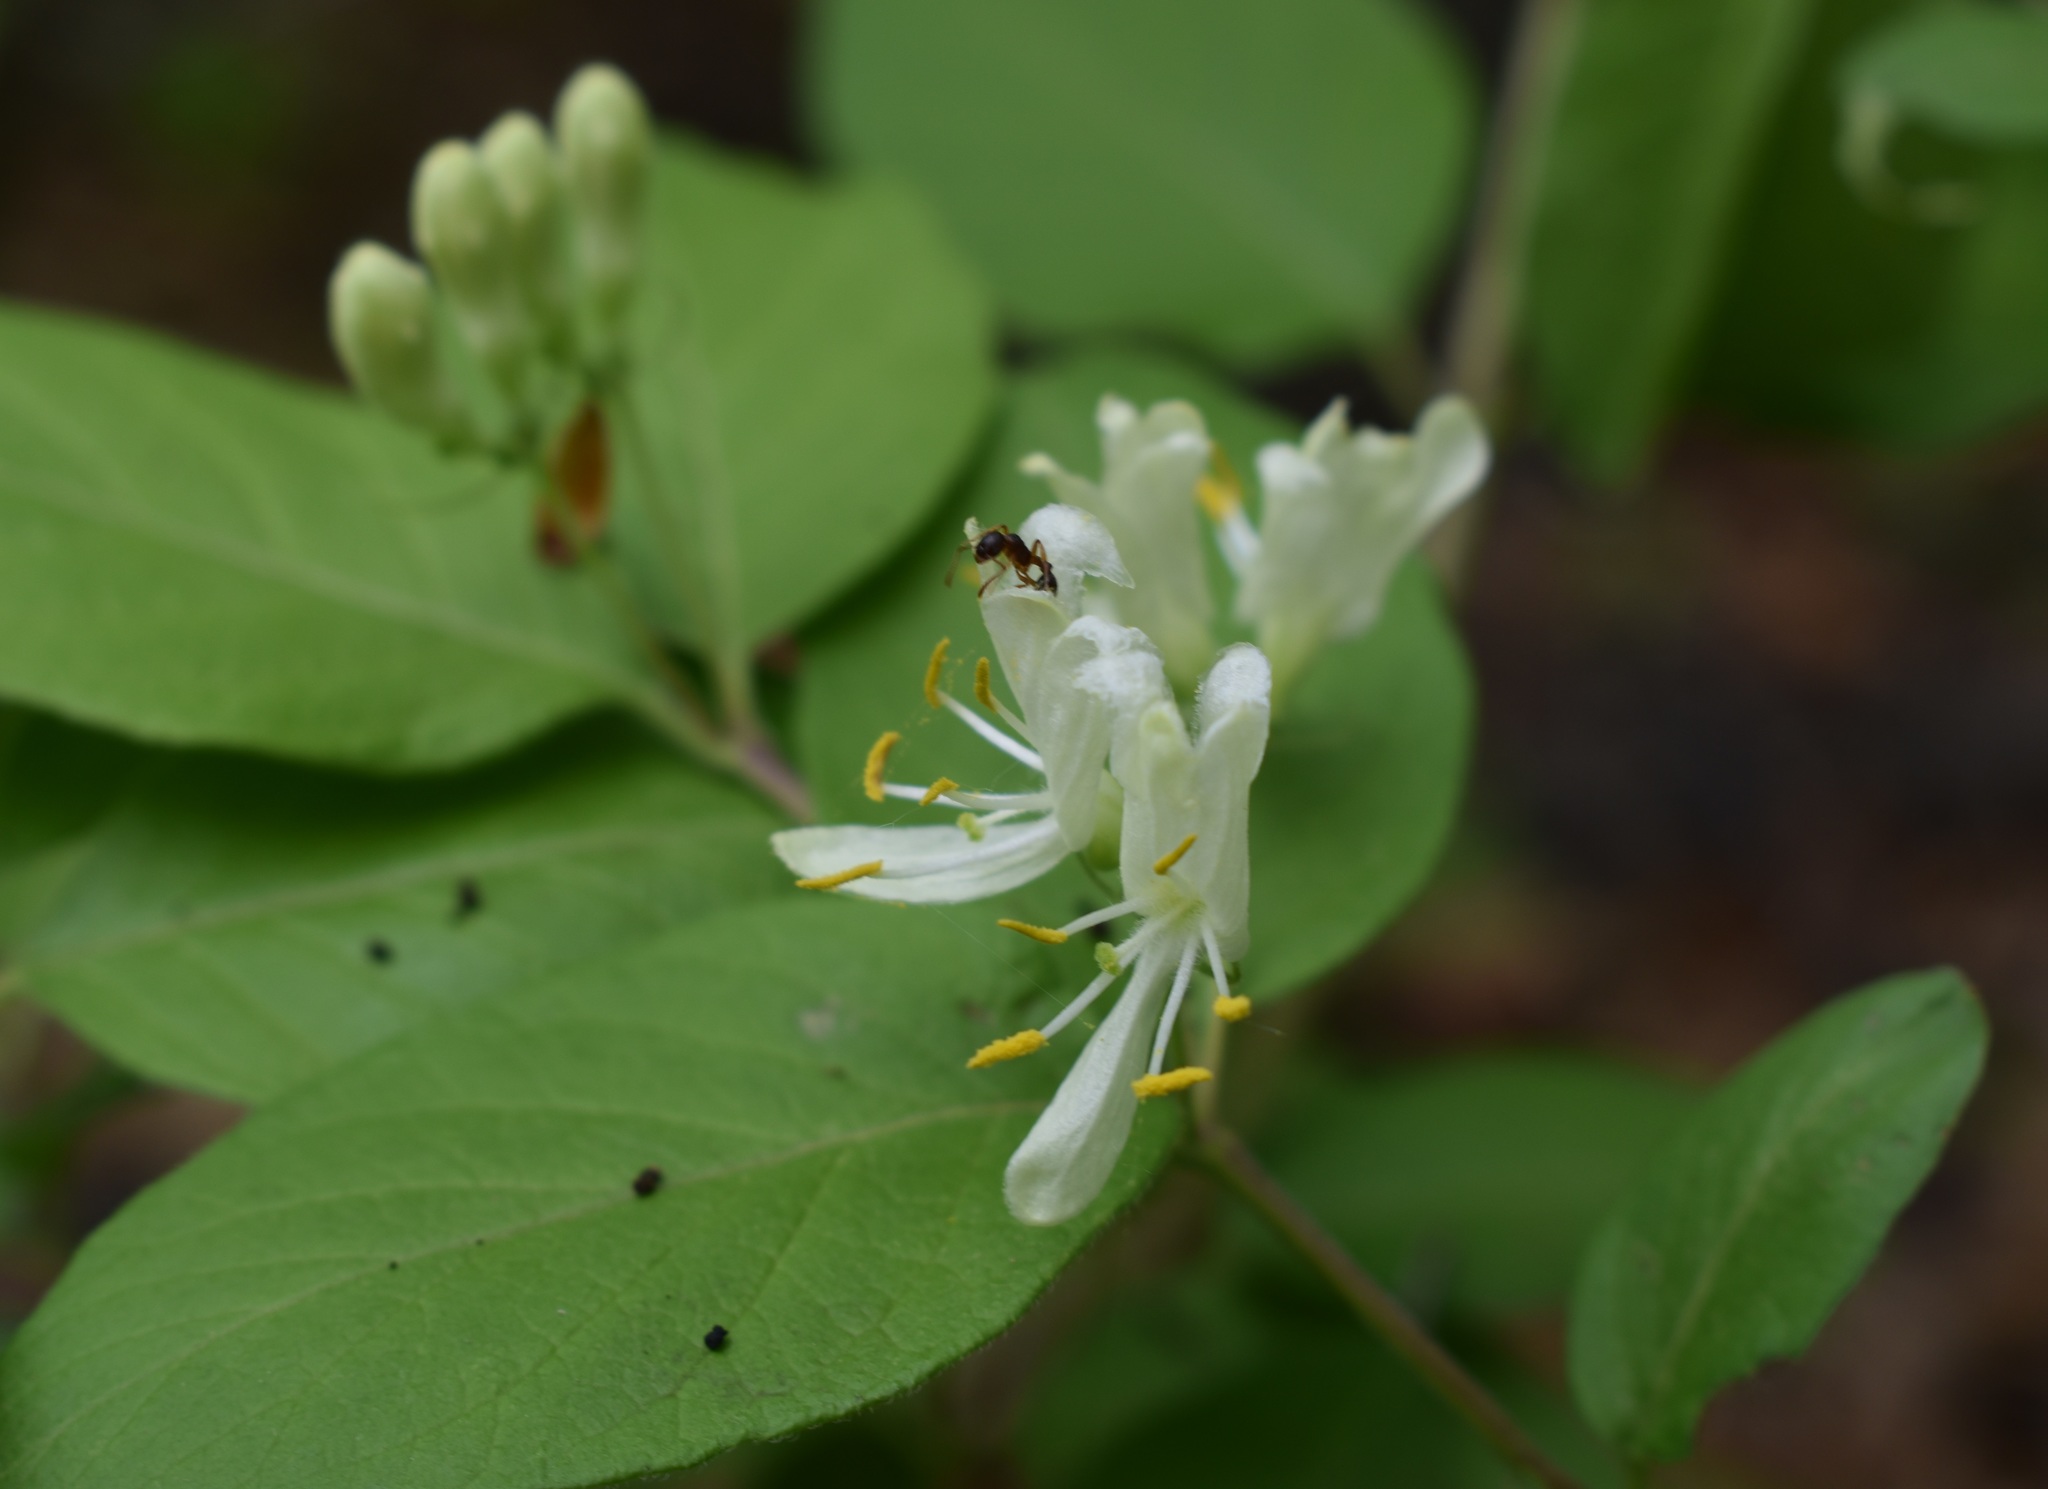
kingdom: Plantae
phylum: Tracheophyta
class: Magnoliopsida
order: Dipsacales
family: Caprifoliaceae
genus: Lonicera
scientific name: Lonicera ruprechtiana
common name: Manchurian honeysuckle
